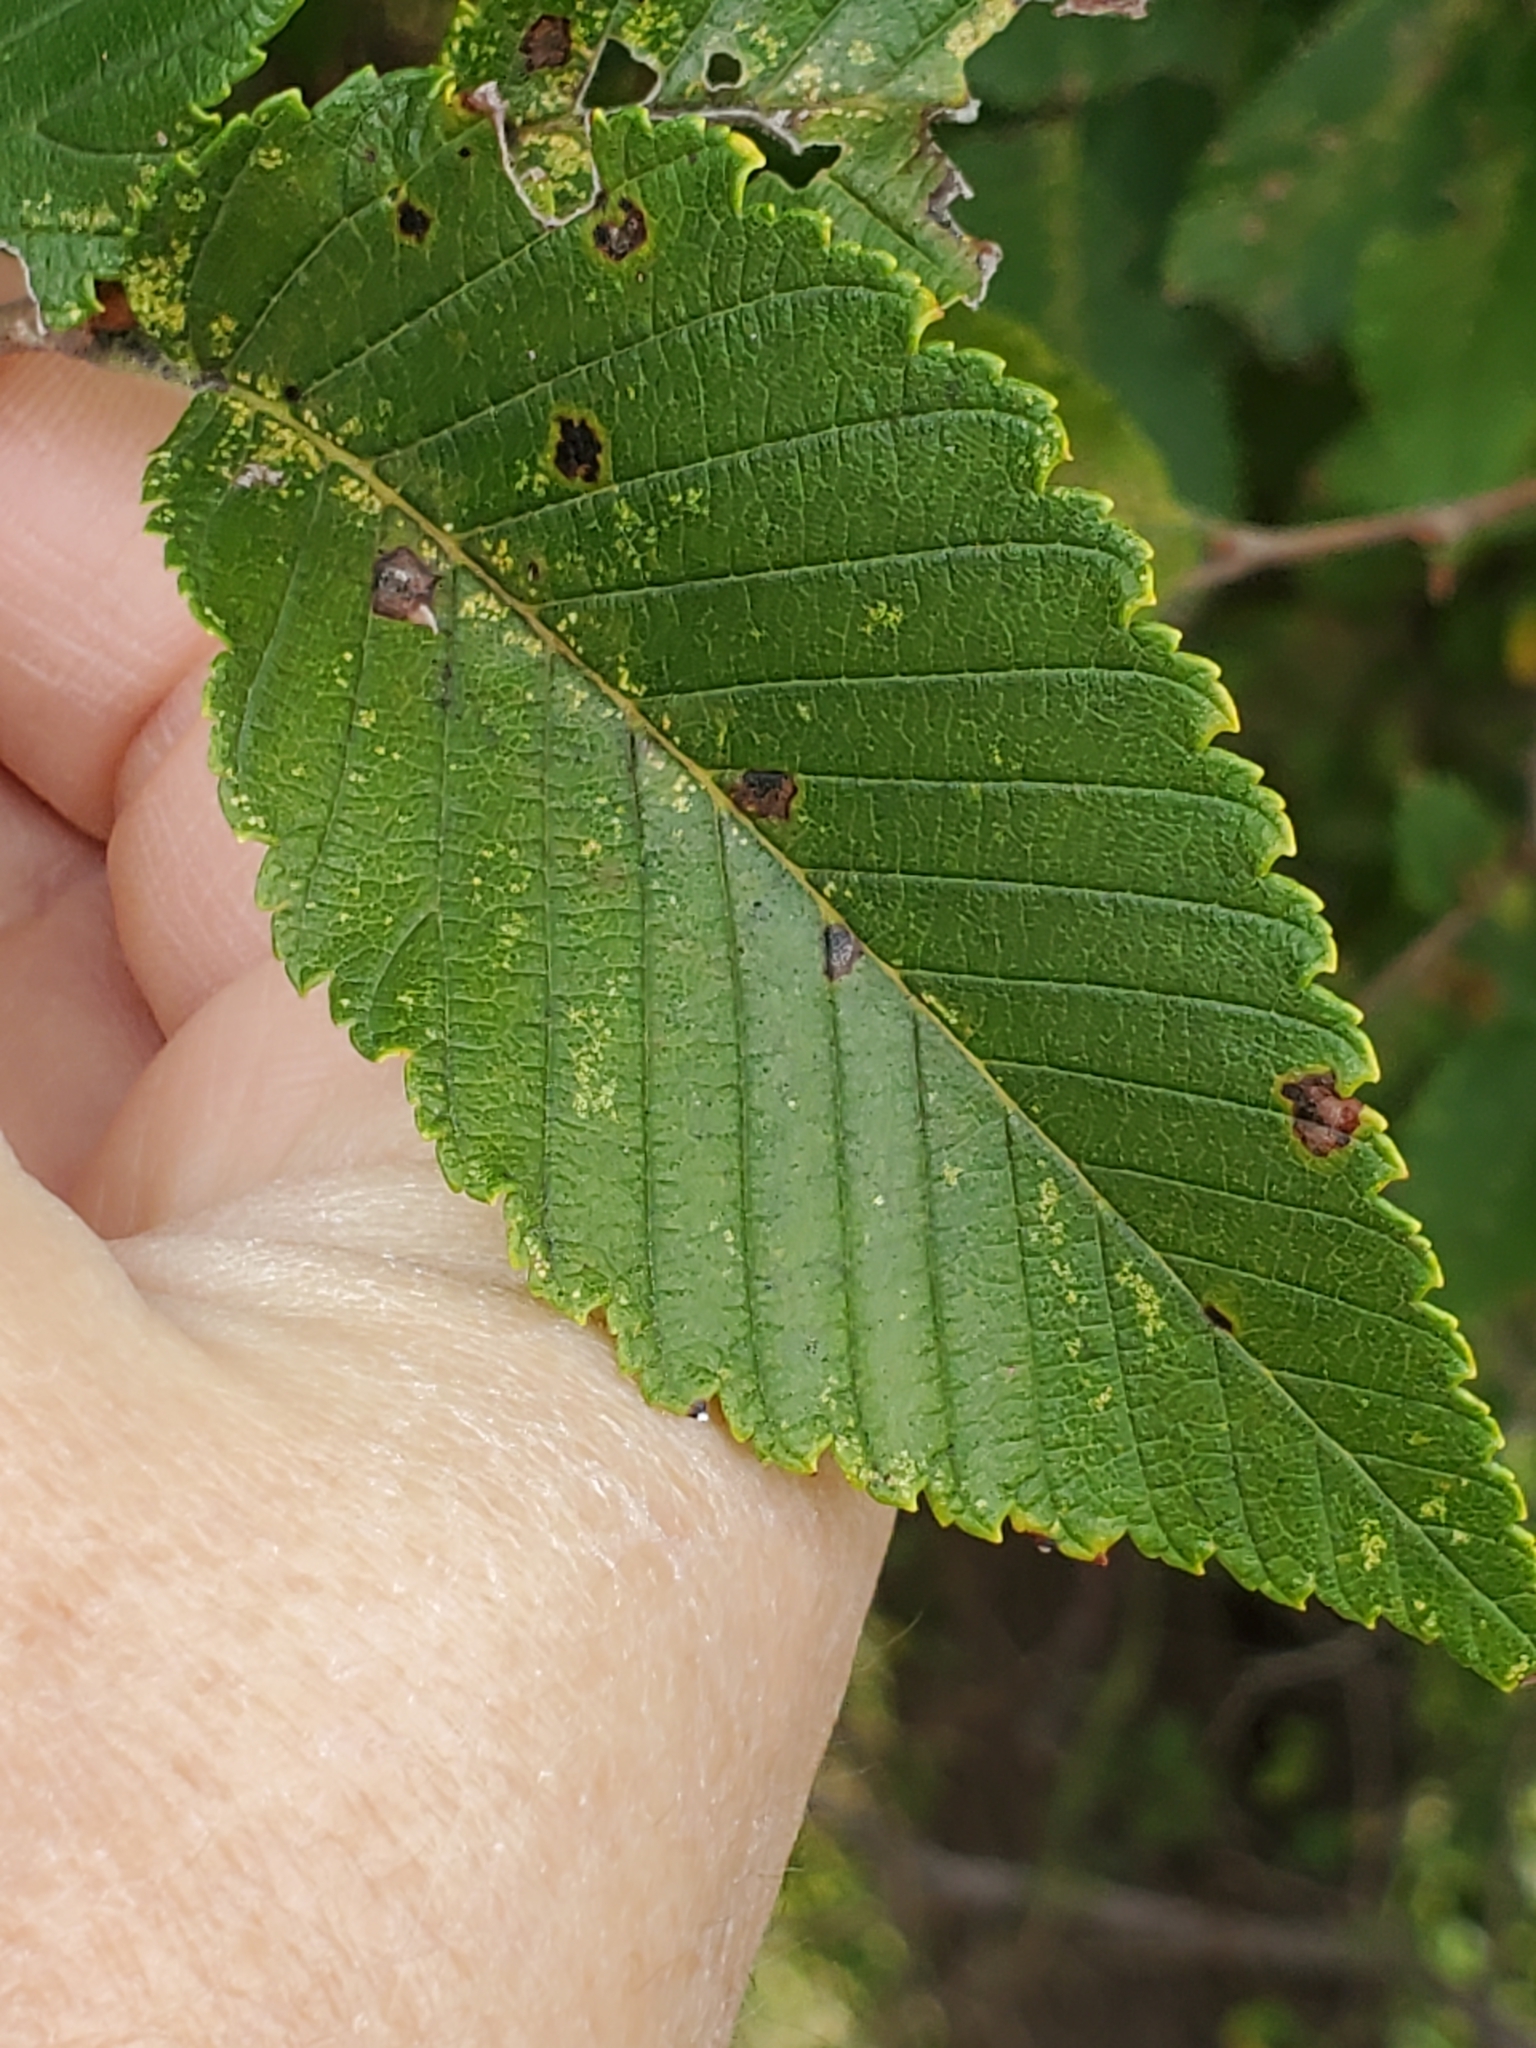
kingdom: Plantae
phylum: Tracheophyta
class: Magnoliopsida
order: Rosales
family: Ulmaceae
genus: Ulmus
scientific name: Ulmus americana
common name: American elm
